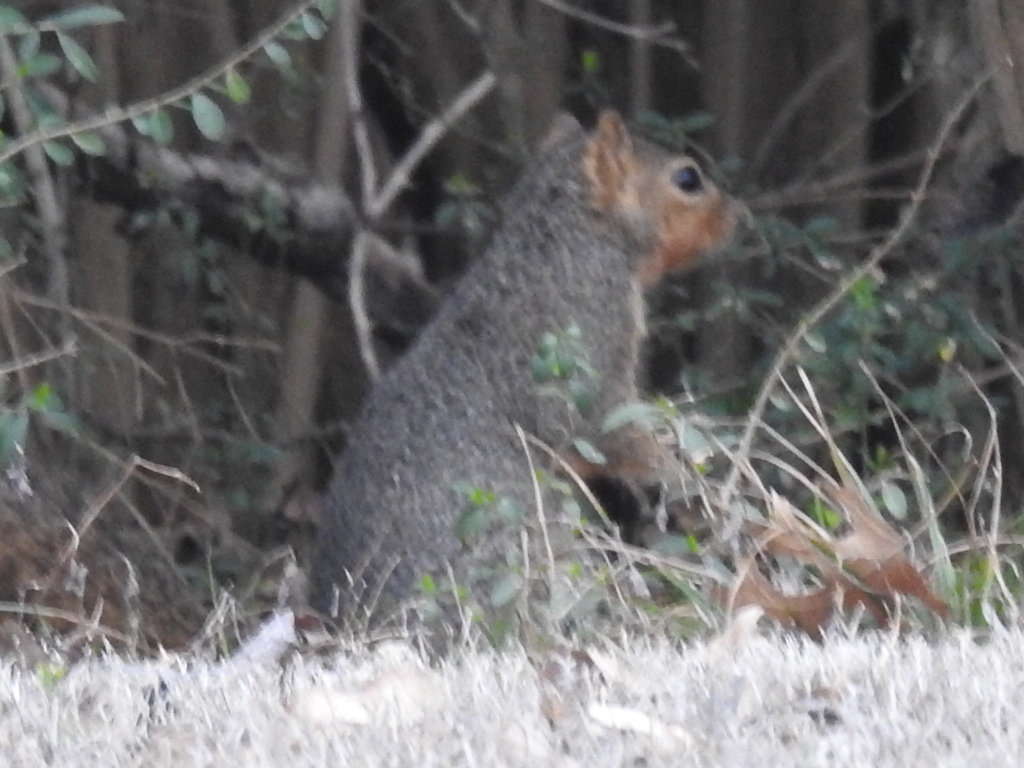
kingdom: Animalia
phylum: Chordata
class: Mammalia
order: Rodentia
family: Sciuridae
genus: Sciurus
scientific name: Sciurus niger
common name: Fox squirrel
